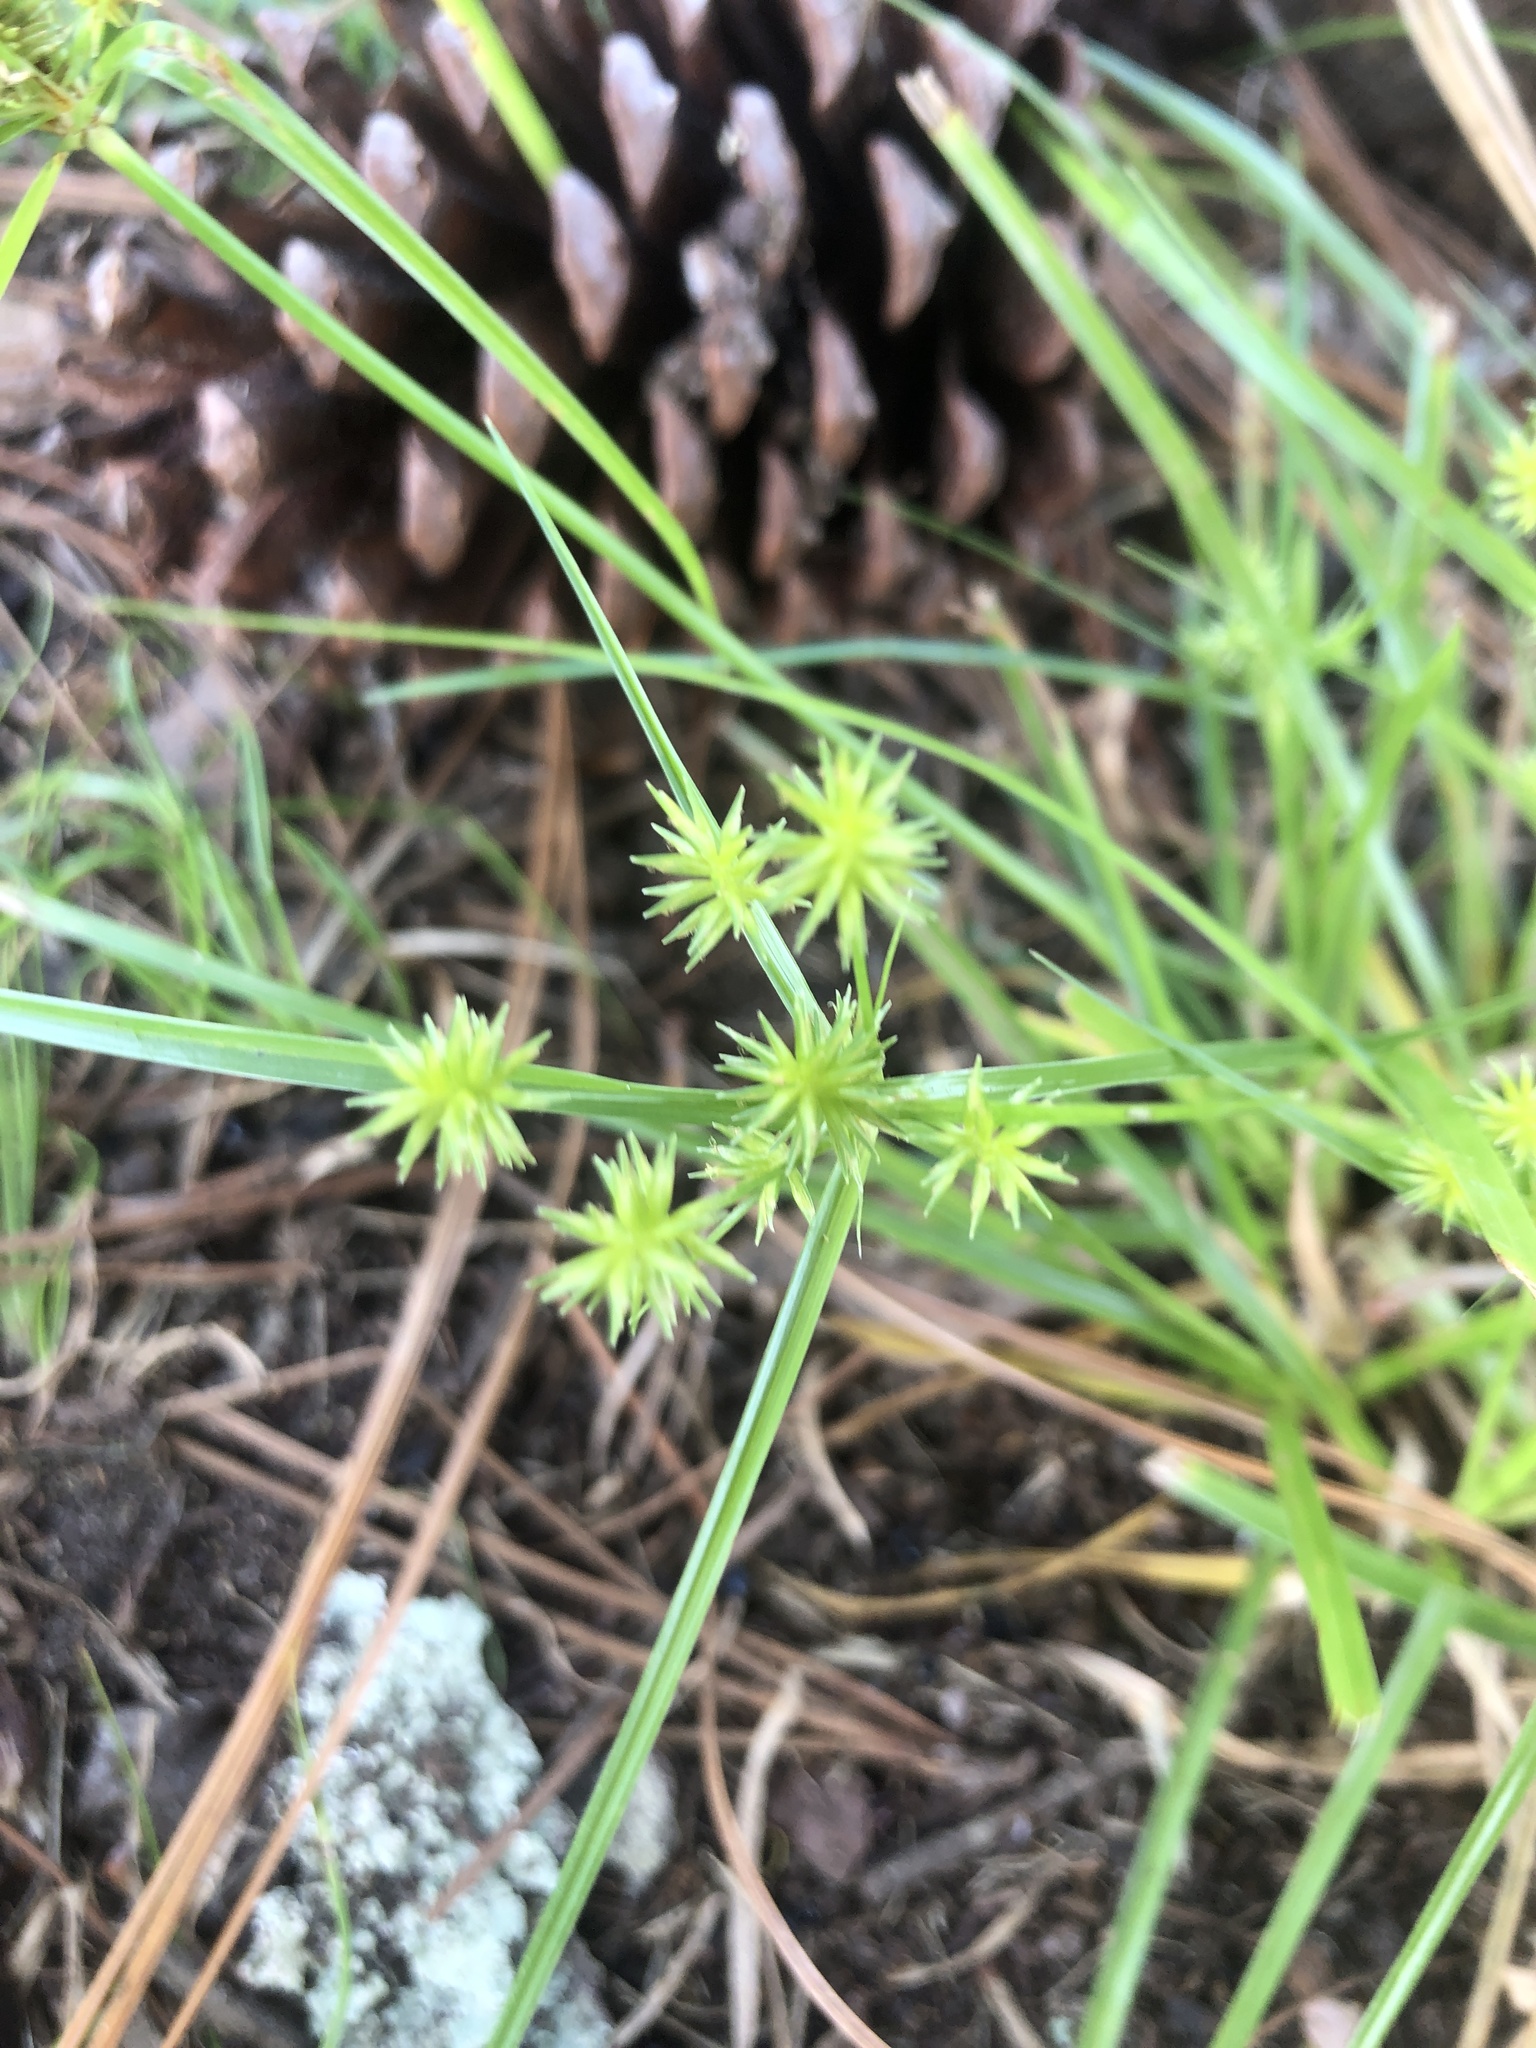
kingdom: Plantae
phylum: Tracheophyta
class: Liliopsida
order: Poales
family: Cyperaceae
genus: Cyperus
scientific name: Cyperus croceus
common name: Baldwin's flatsedge
